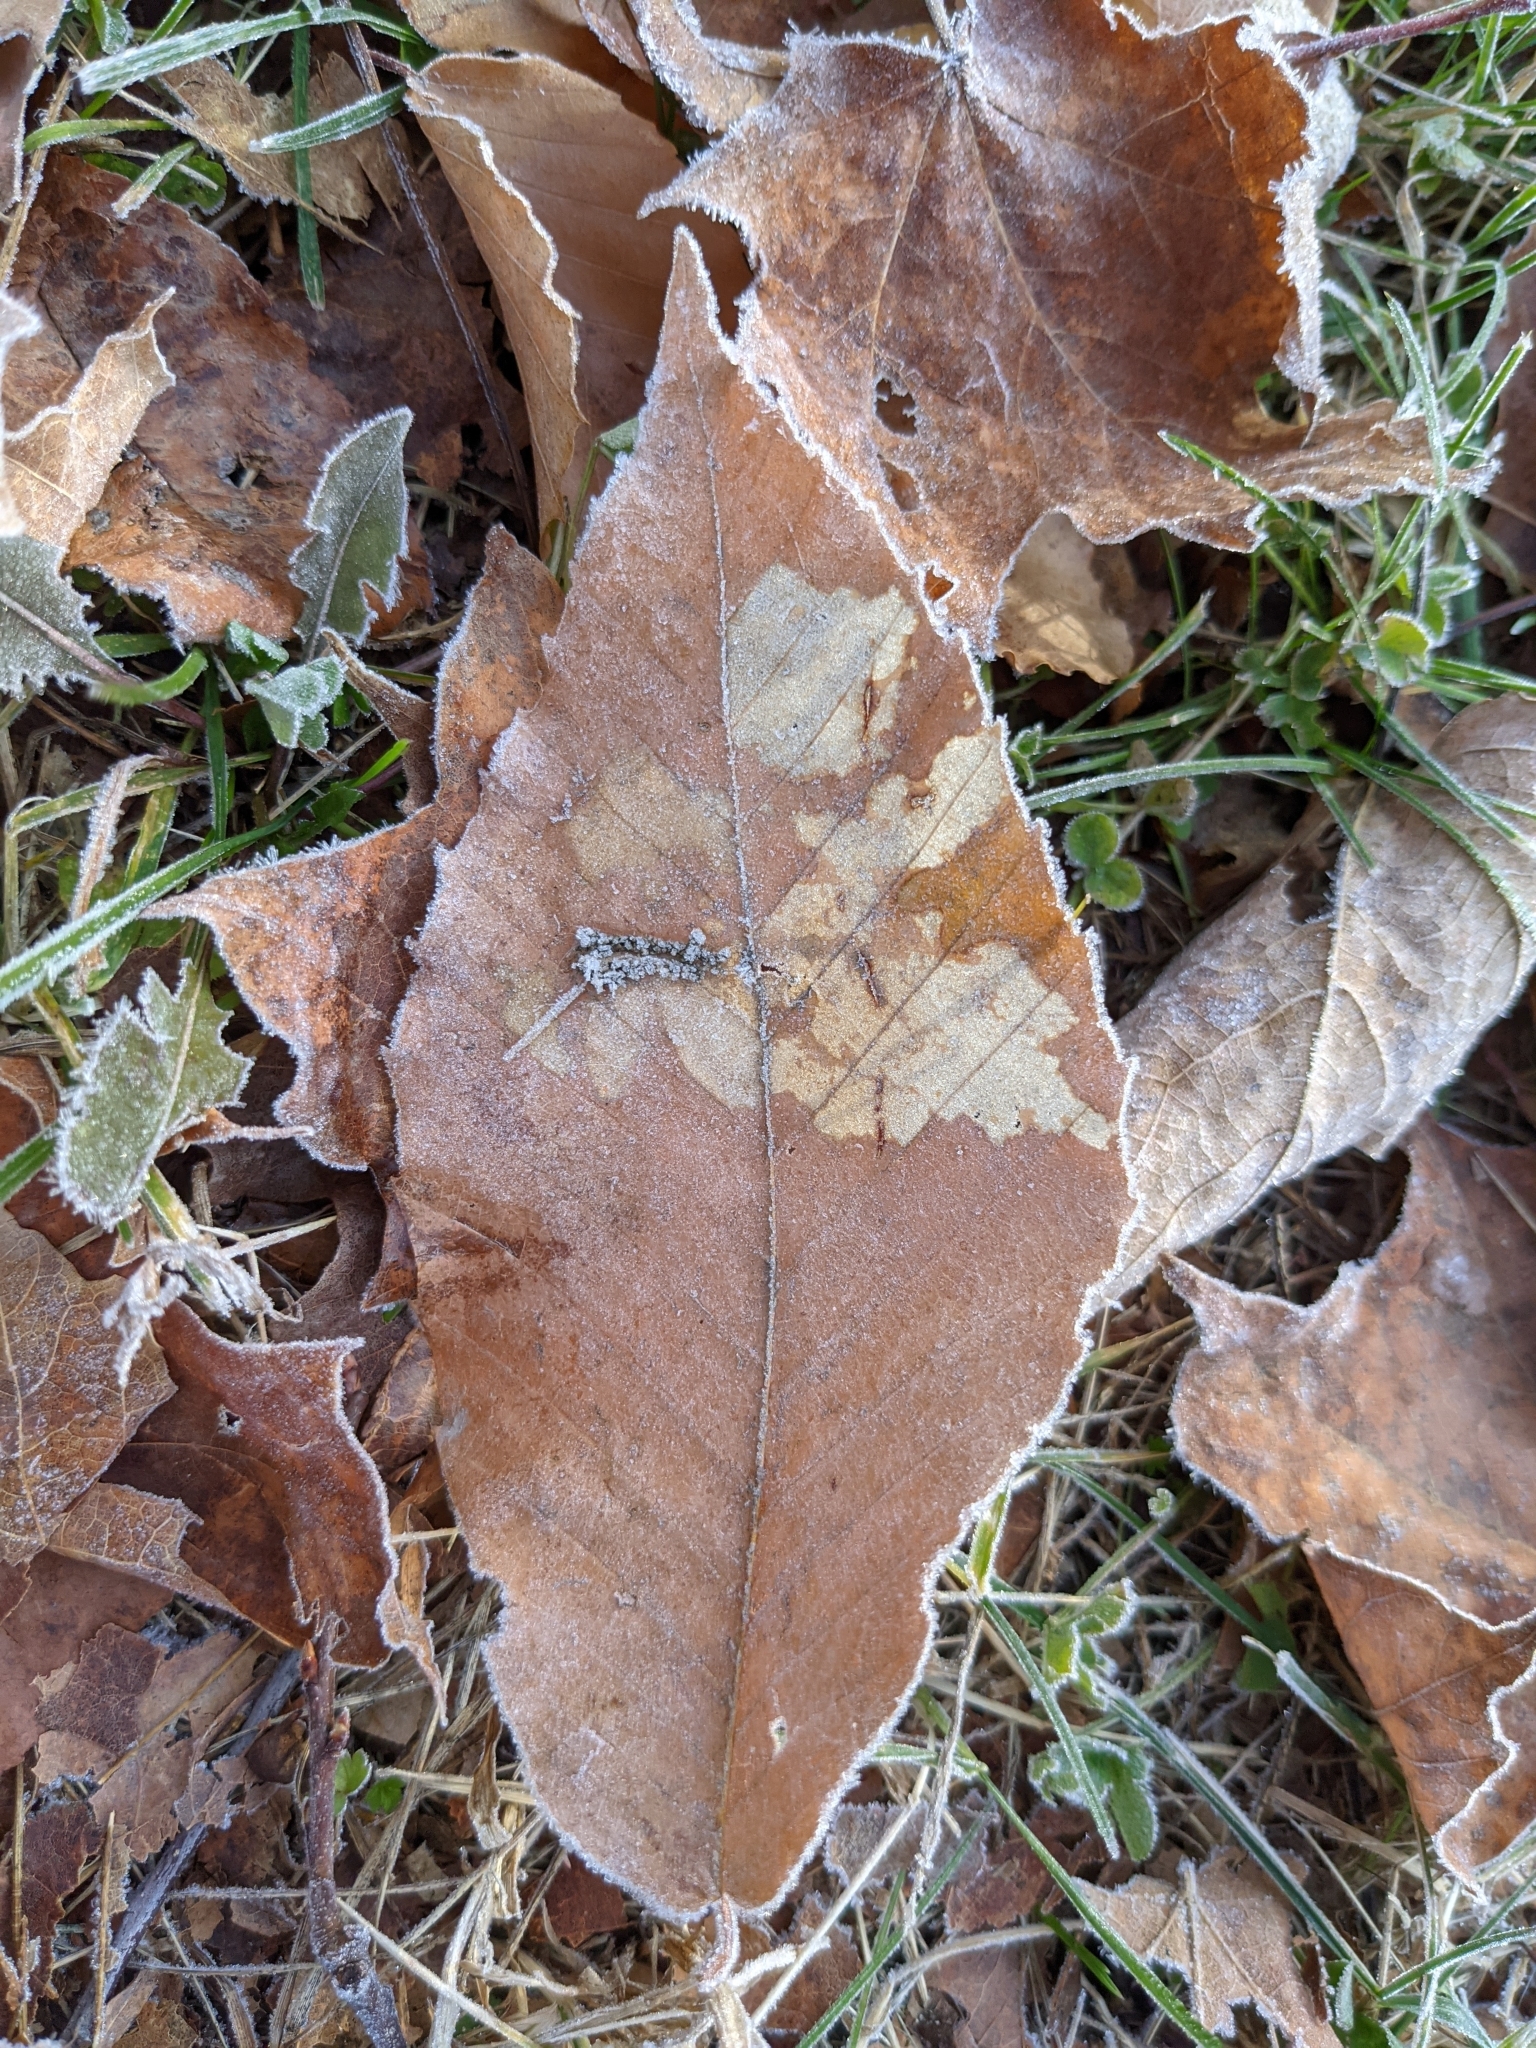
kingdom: Plantae
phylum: Tracheophyta
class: Magnoliopsida
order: Fagales
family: Fagaceae
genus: Fagus
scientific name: Fagus grandifolia
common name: American beech
